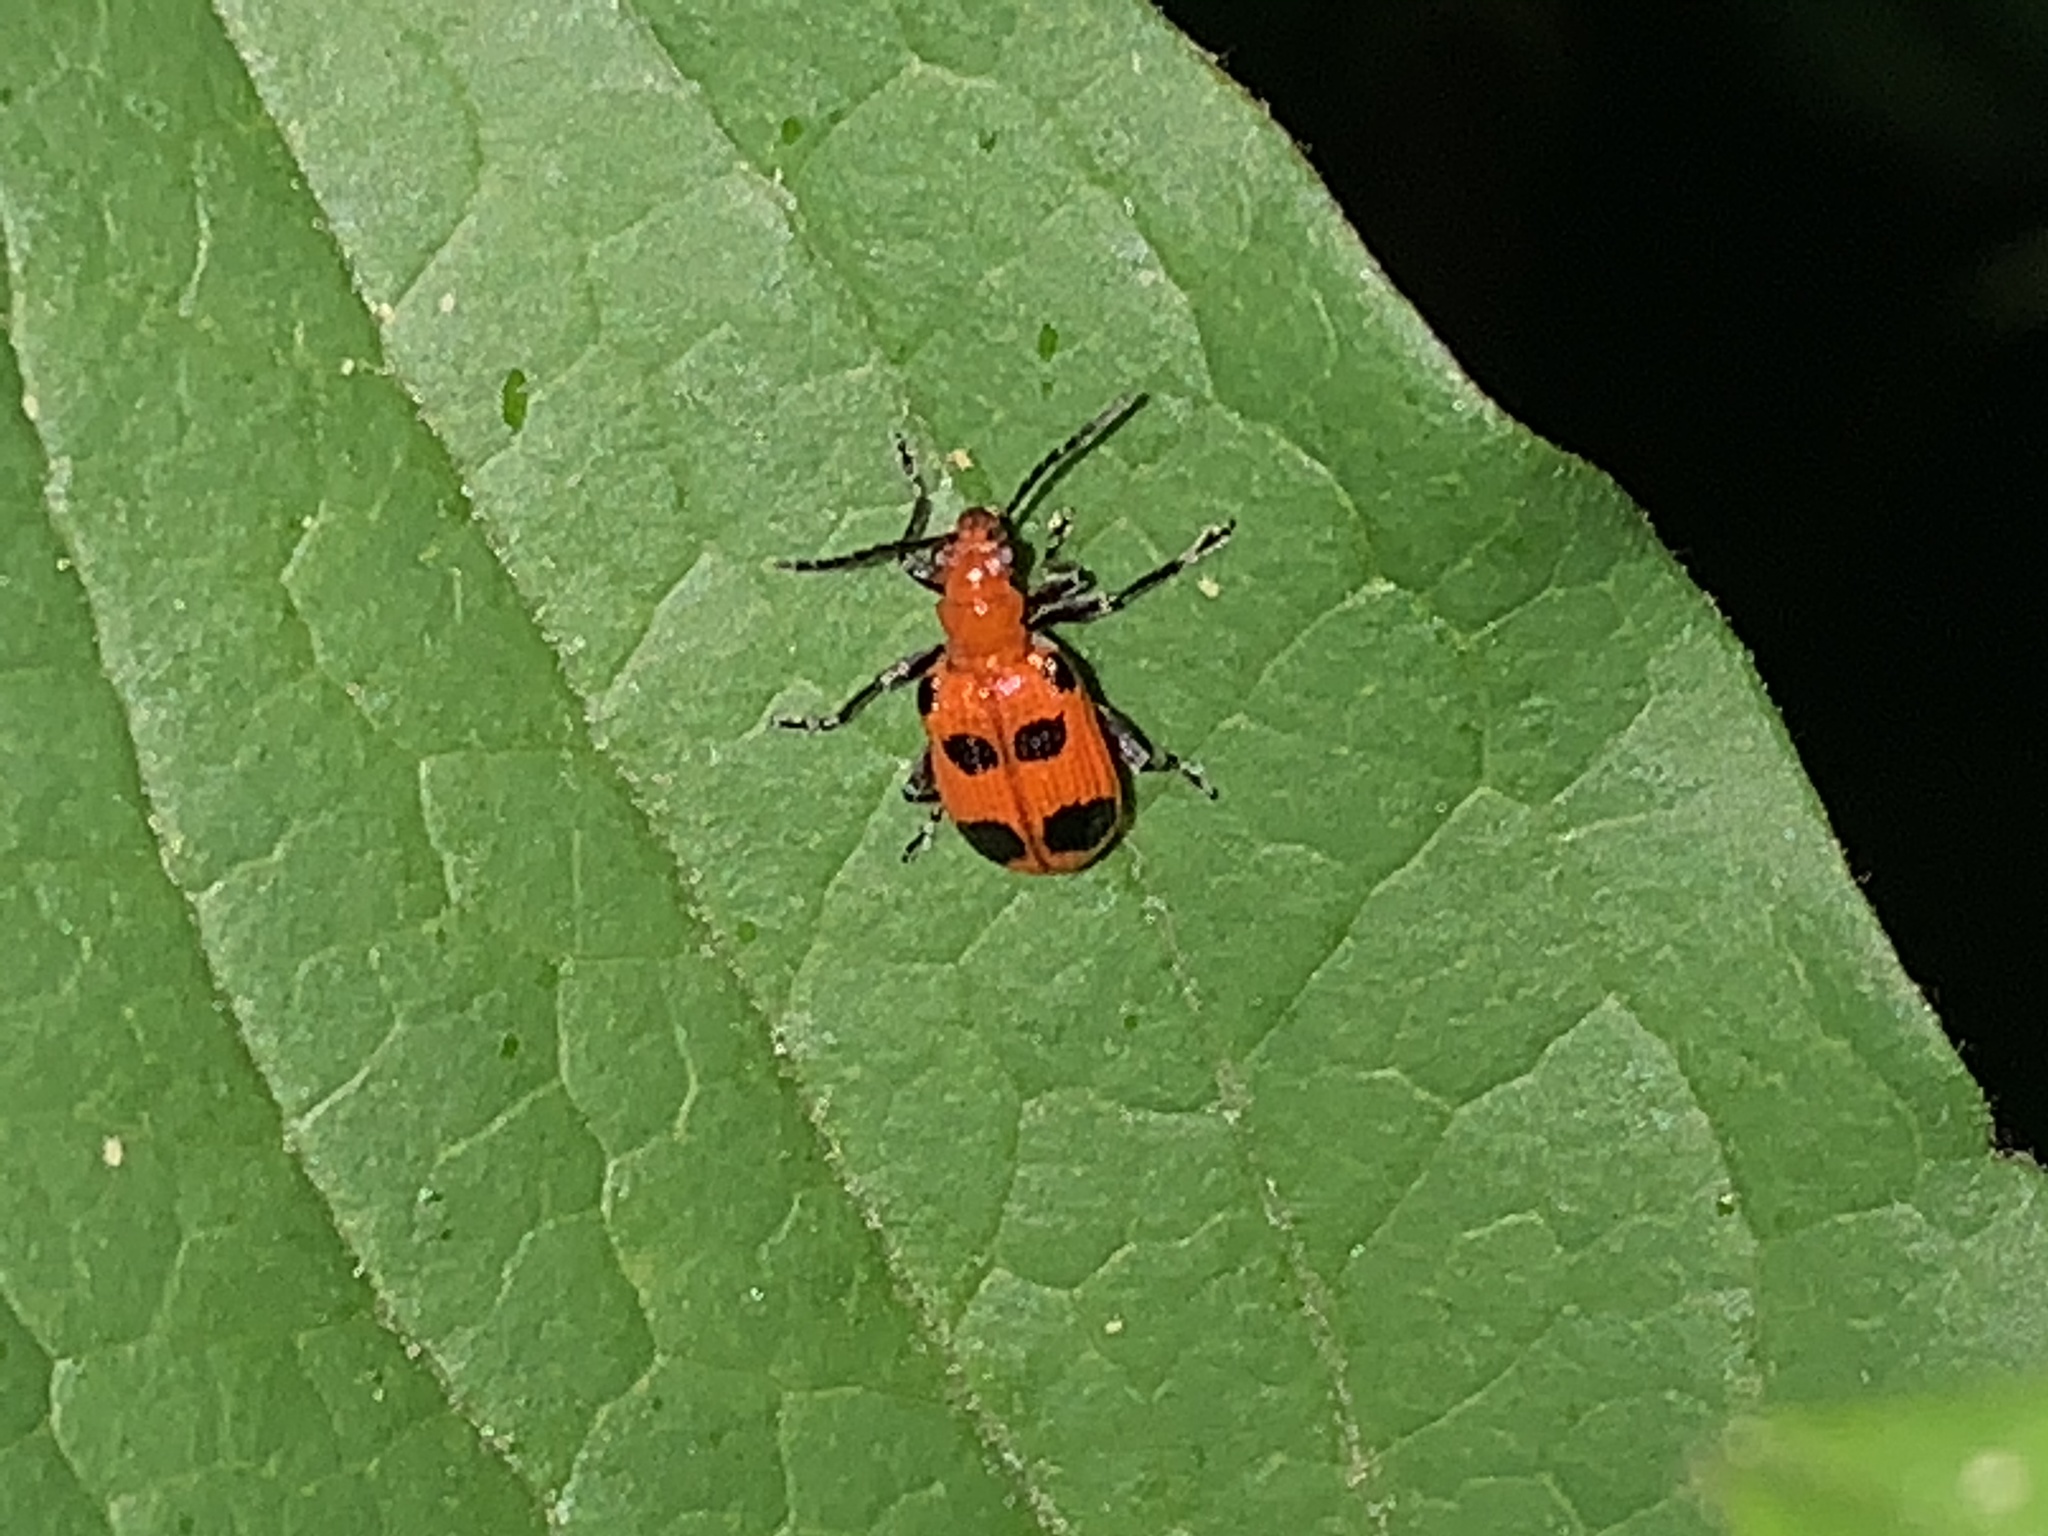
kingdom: Animalia
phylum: Arthropoda
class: Insecta
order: Coleoptera
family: Chrysomelidae
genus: Neolema
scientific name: Neolema sexpunctata
